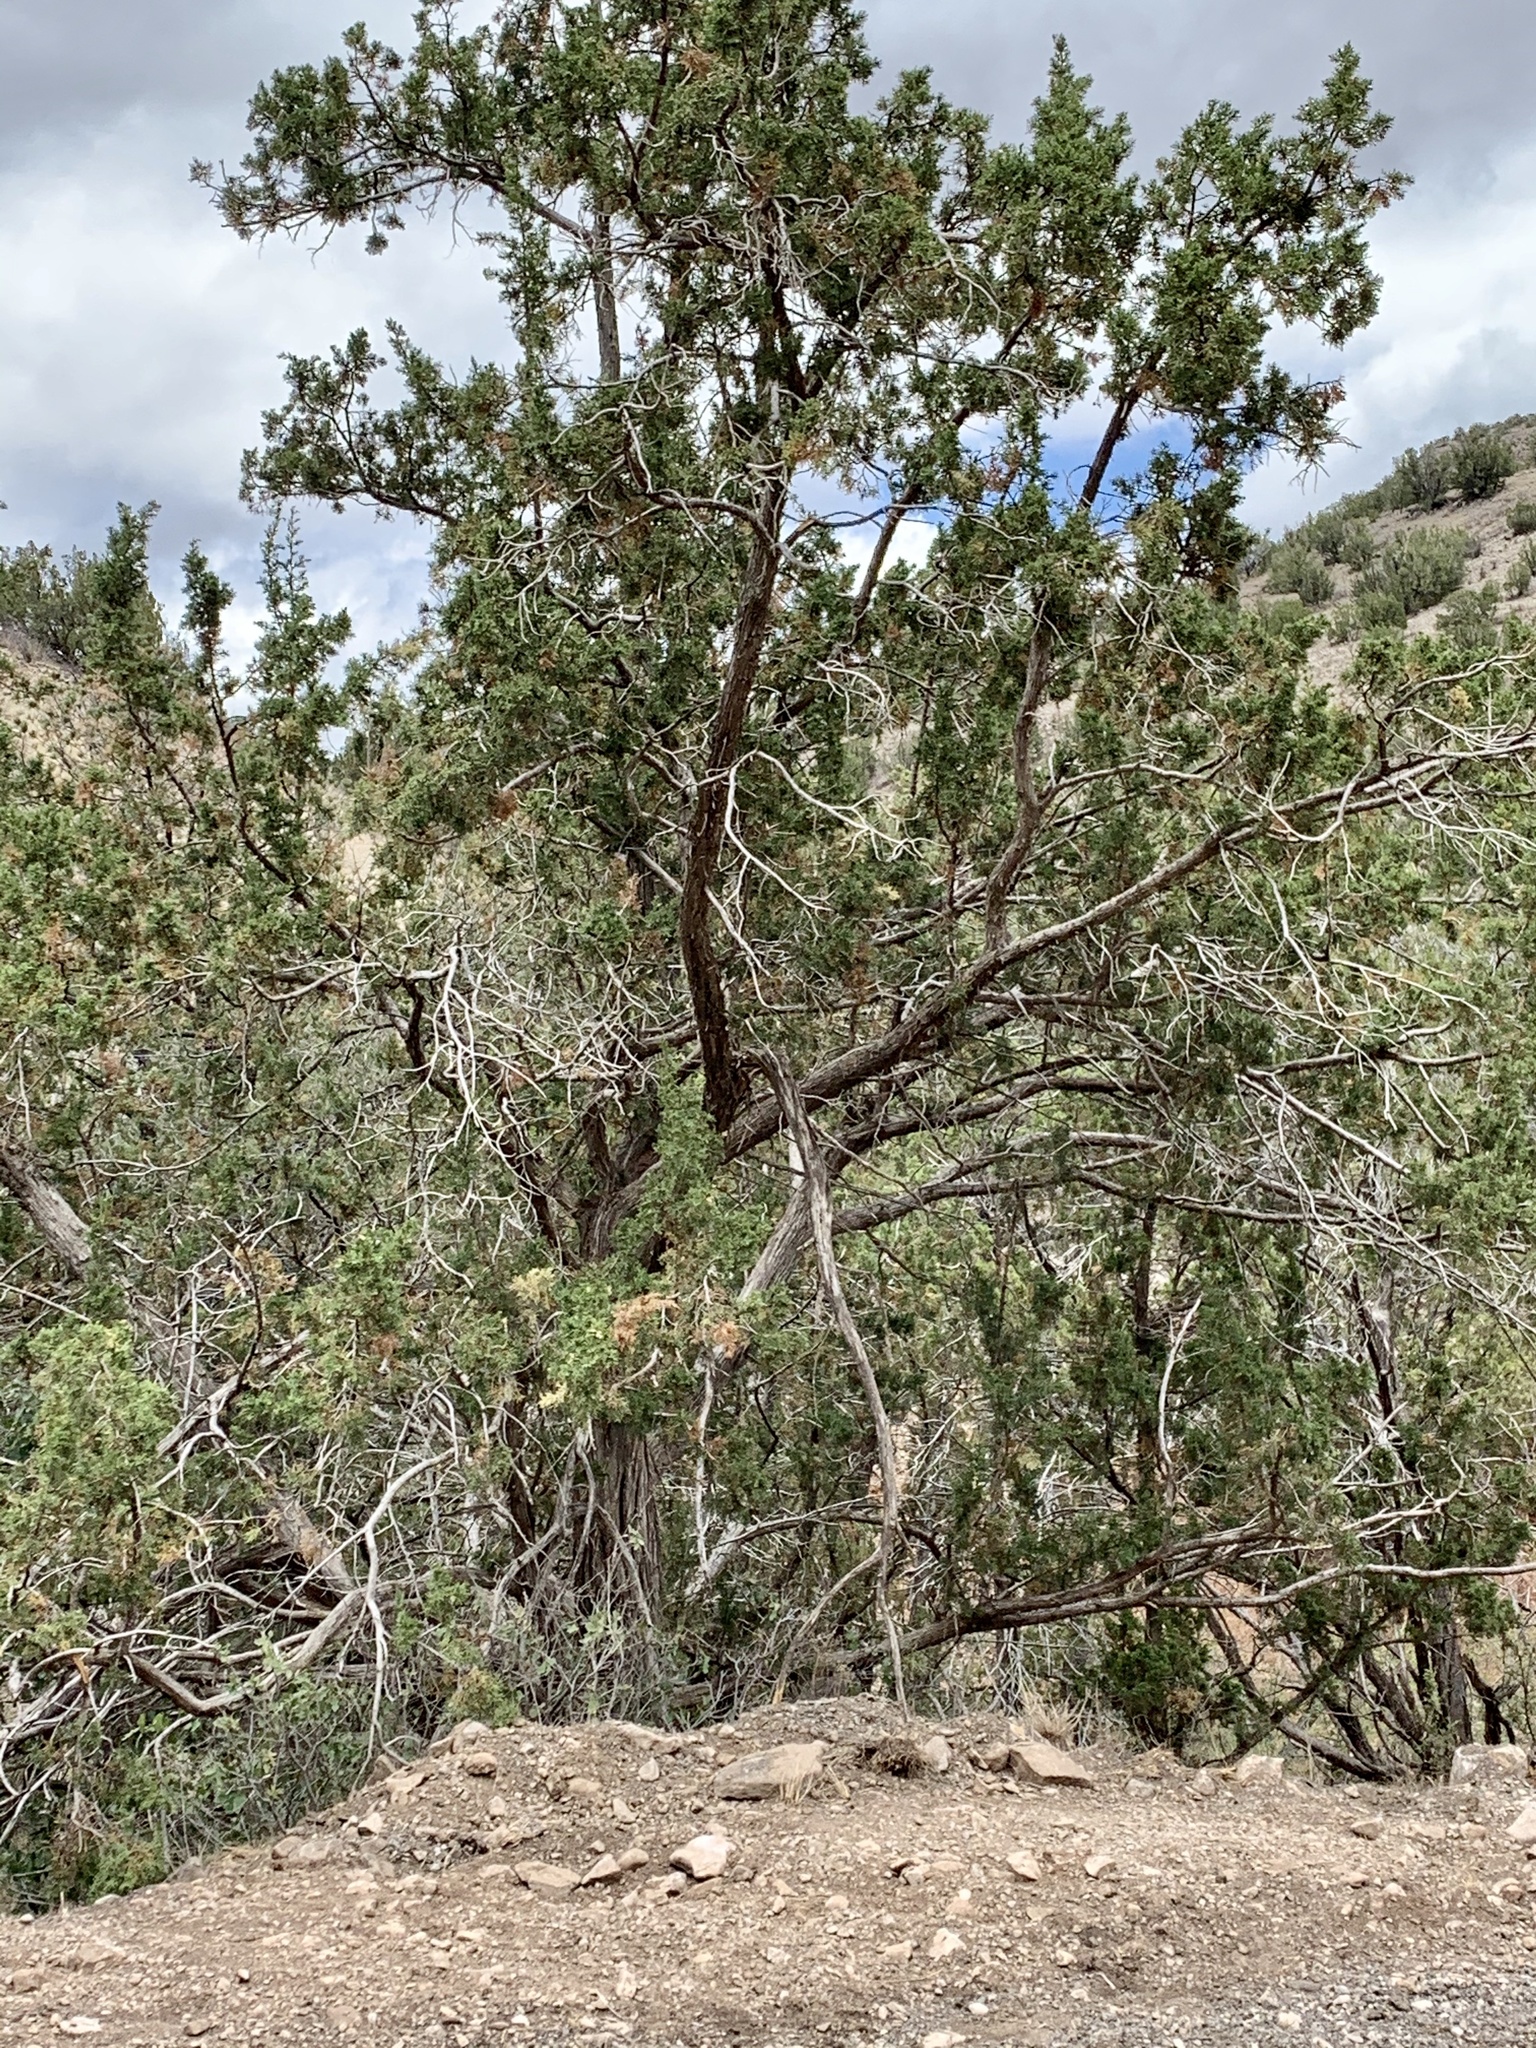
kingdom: Plantae
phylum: Tracheophyta
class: Pinopsida
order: Pinales
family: Cupressaceae
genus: Juniperus
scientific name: Juniperus monosperma
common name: One-seed juniper
